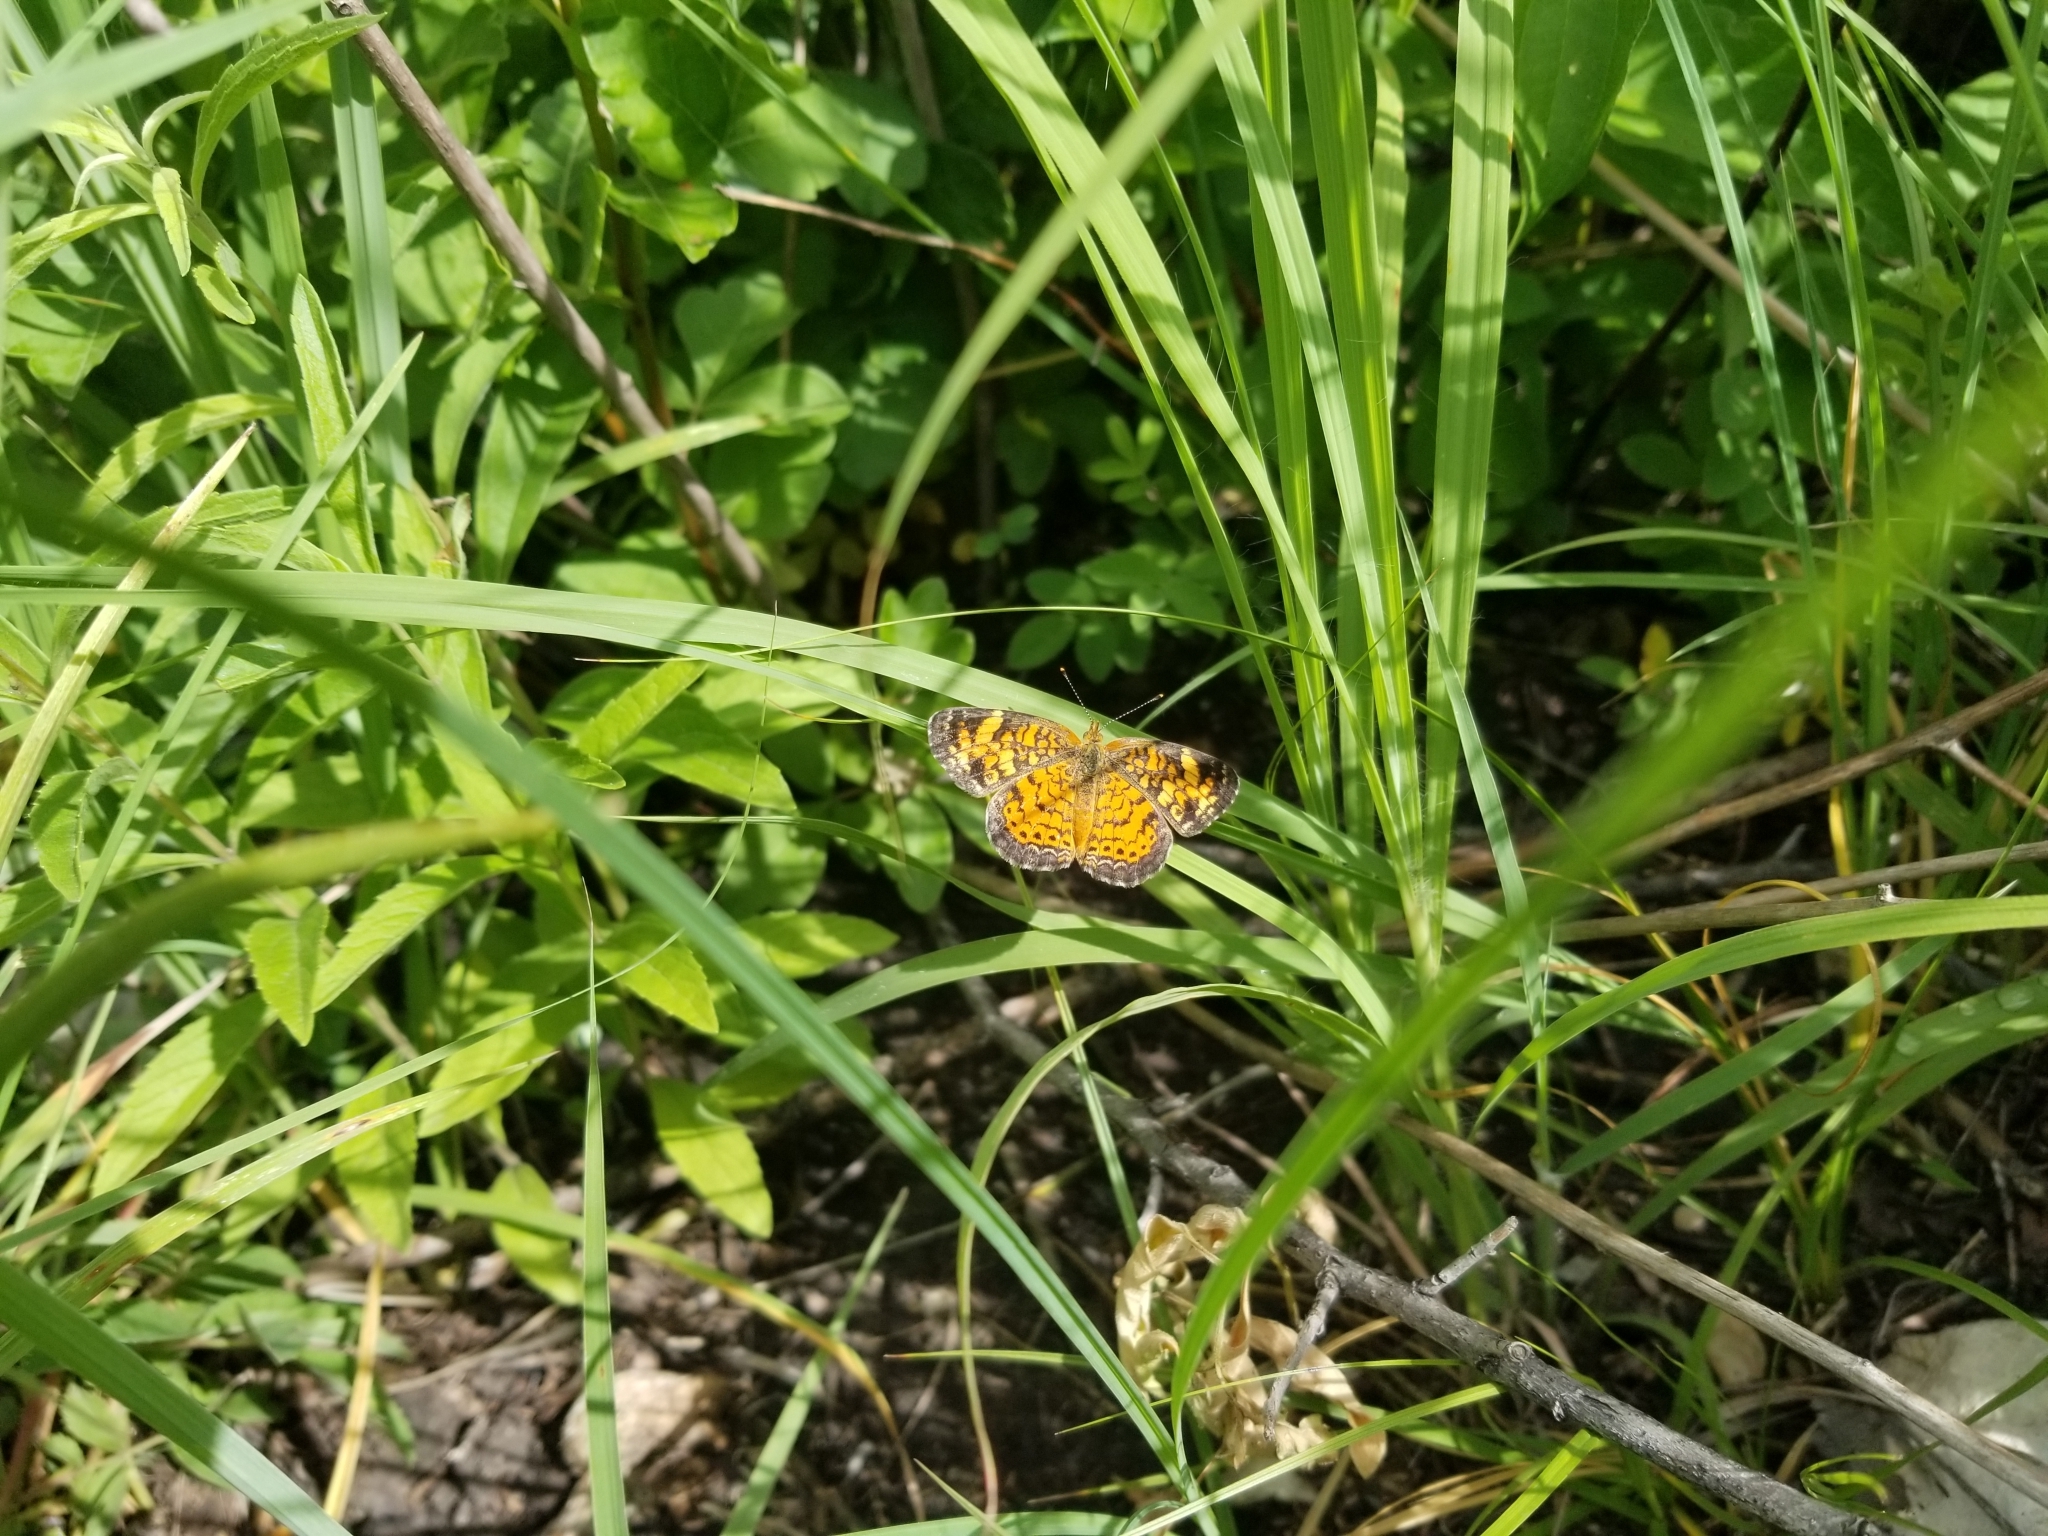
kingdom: Animalia
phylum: Arthropoda
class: Insecta
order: Lepidoptera
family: Nymphalidae
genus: Phyciodes
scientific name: Phyciodes tharos
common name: Pearl crescent
